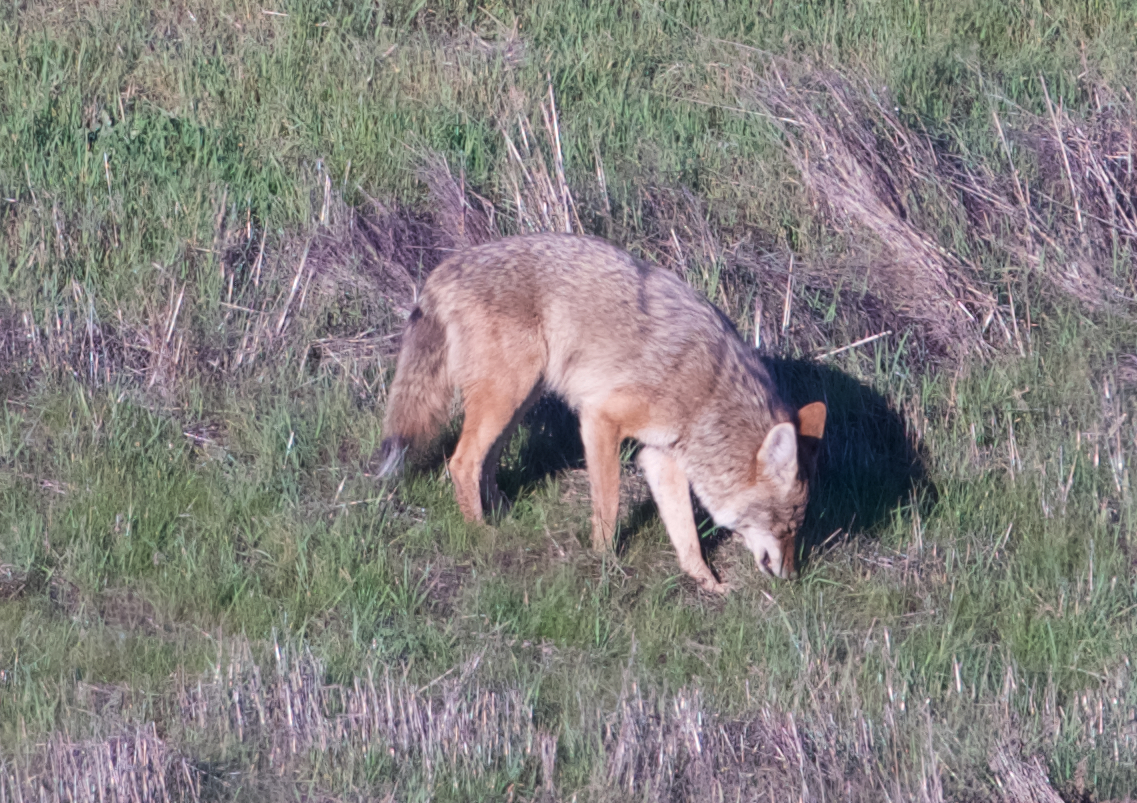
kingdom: Animalia
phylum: Chordata
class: Mammalia
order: Carnivora
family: Canidae
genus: Canis
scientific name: Canis latrans
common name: Coyote
